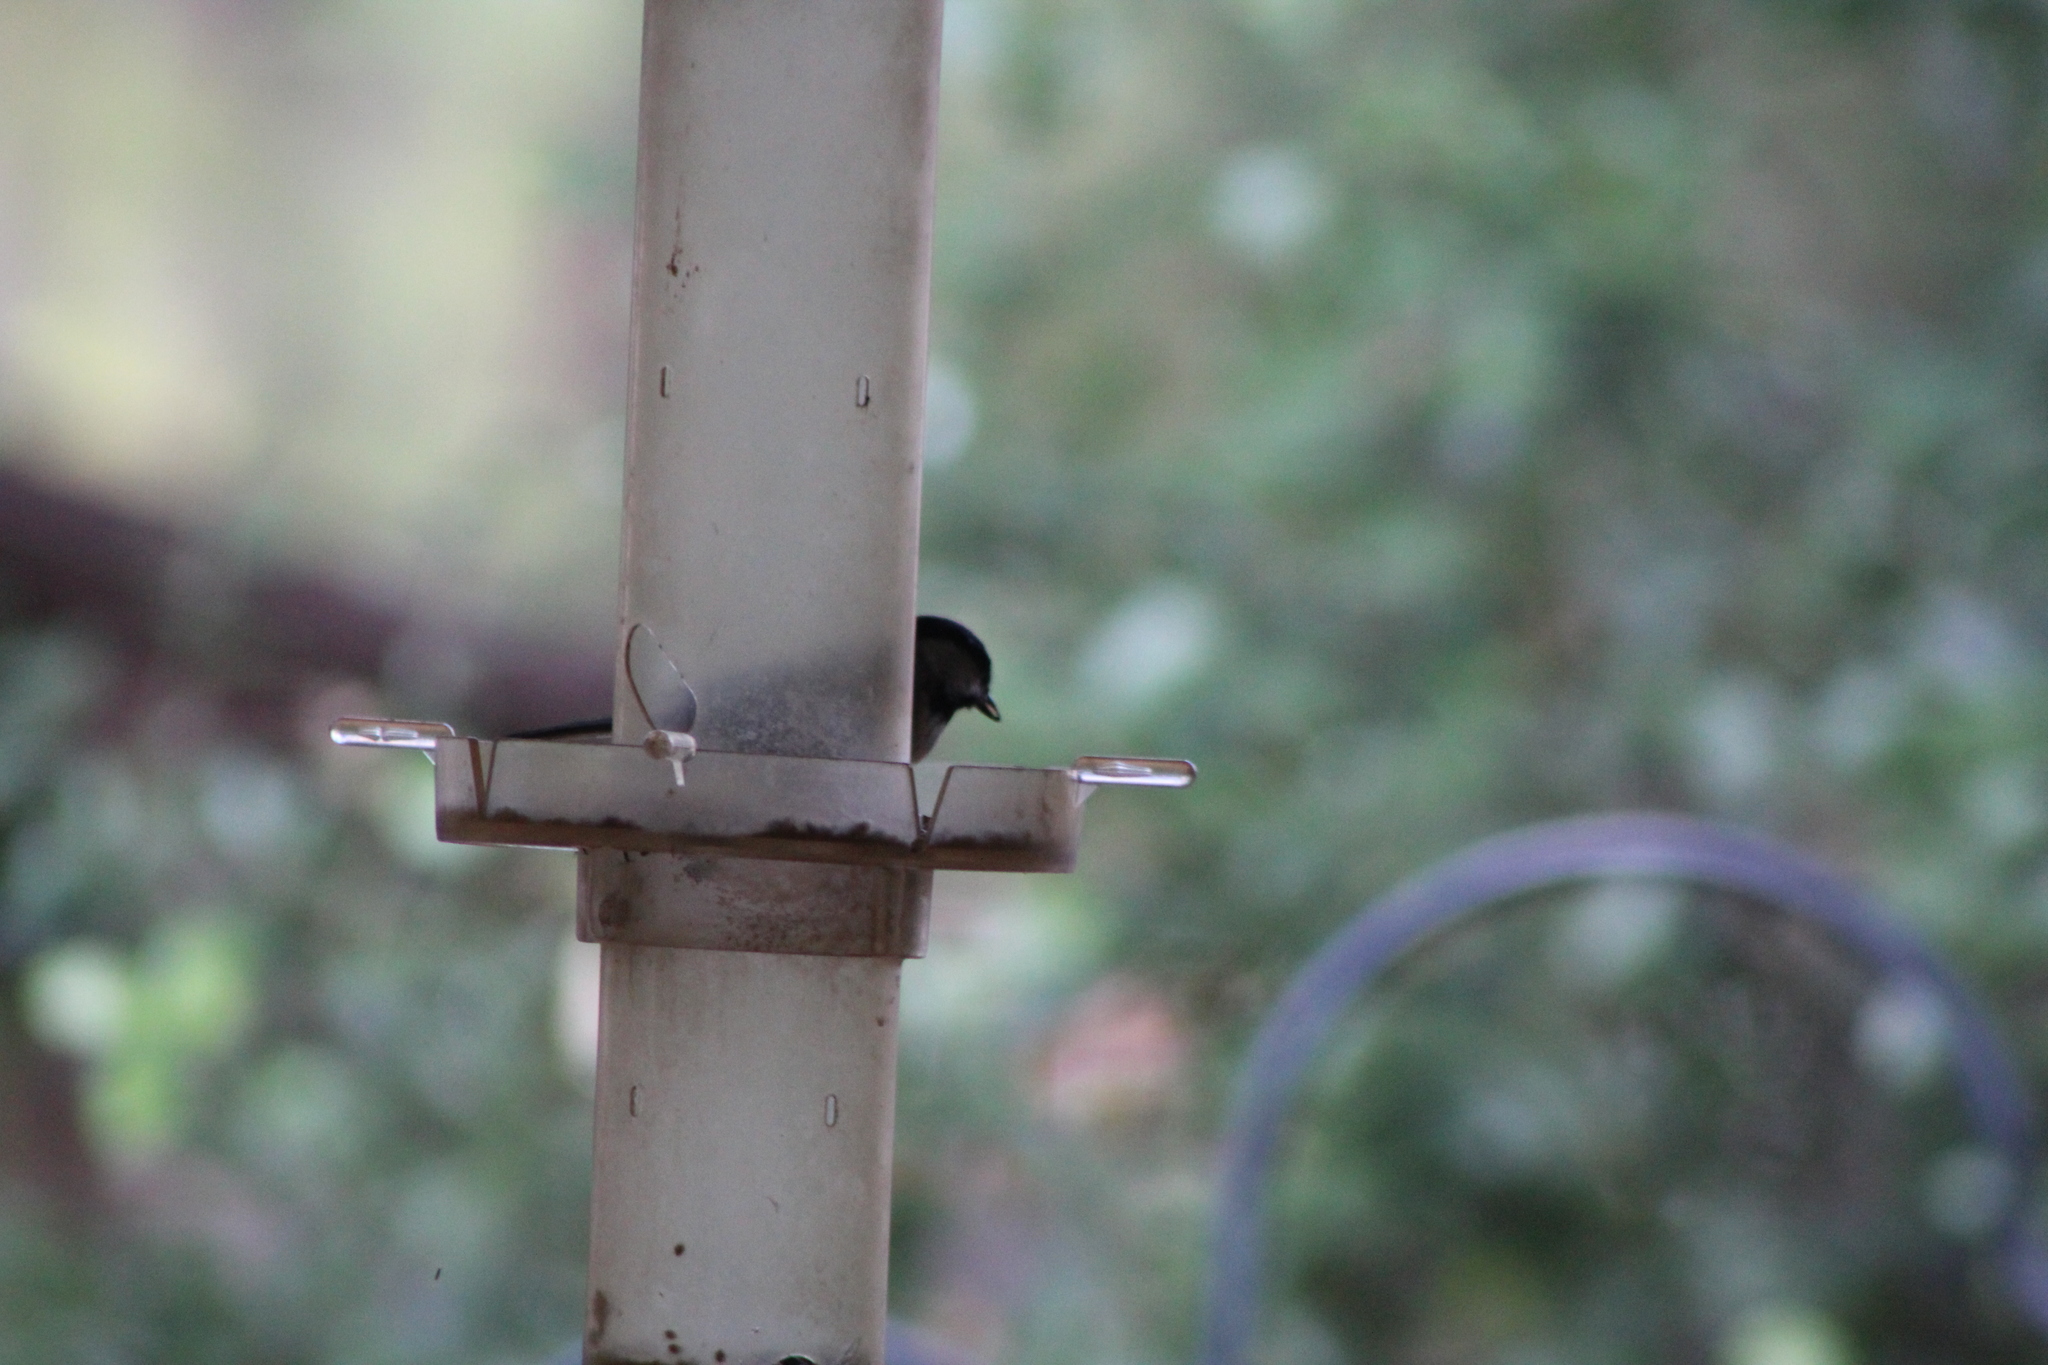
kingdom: Animalia
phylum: Chordata
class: Aves
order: Passeriformes
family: Paridae
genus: Poecile
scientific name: Poecile carolinensis
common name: Carolina chickadee
